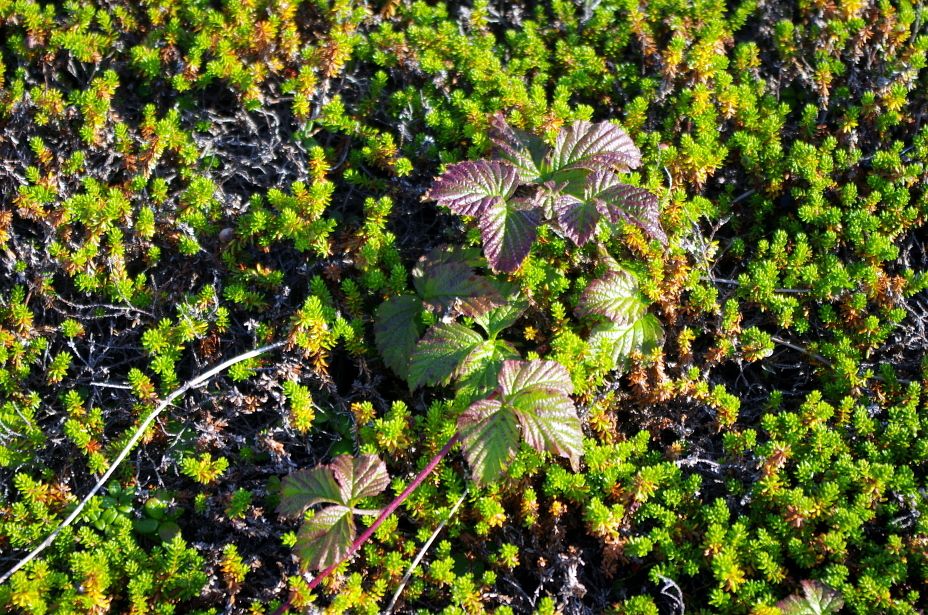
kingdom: Plantae
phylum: Tracheophyta
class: Magnoliopsida
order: Rosales
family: Rosaceae
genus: Rubus
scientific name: Rubus saxatilis
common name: Stone bramble
